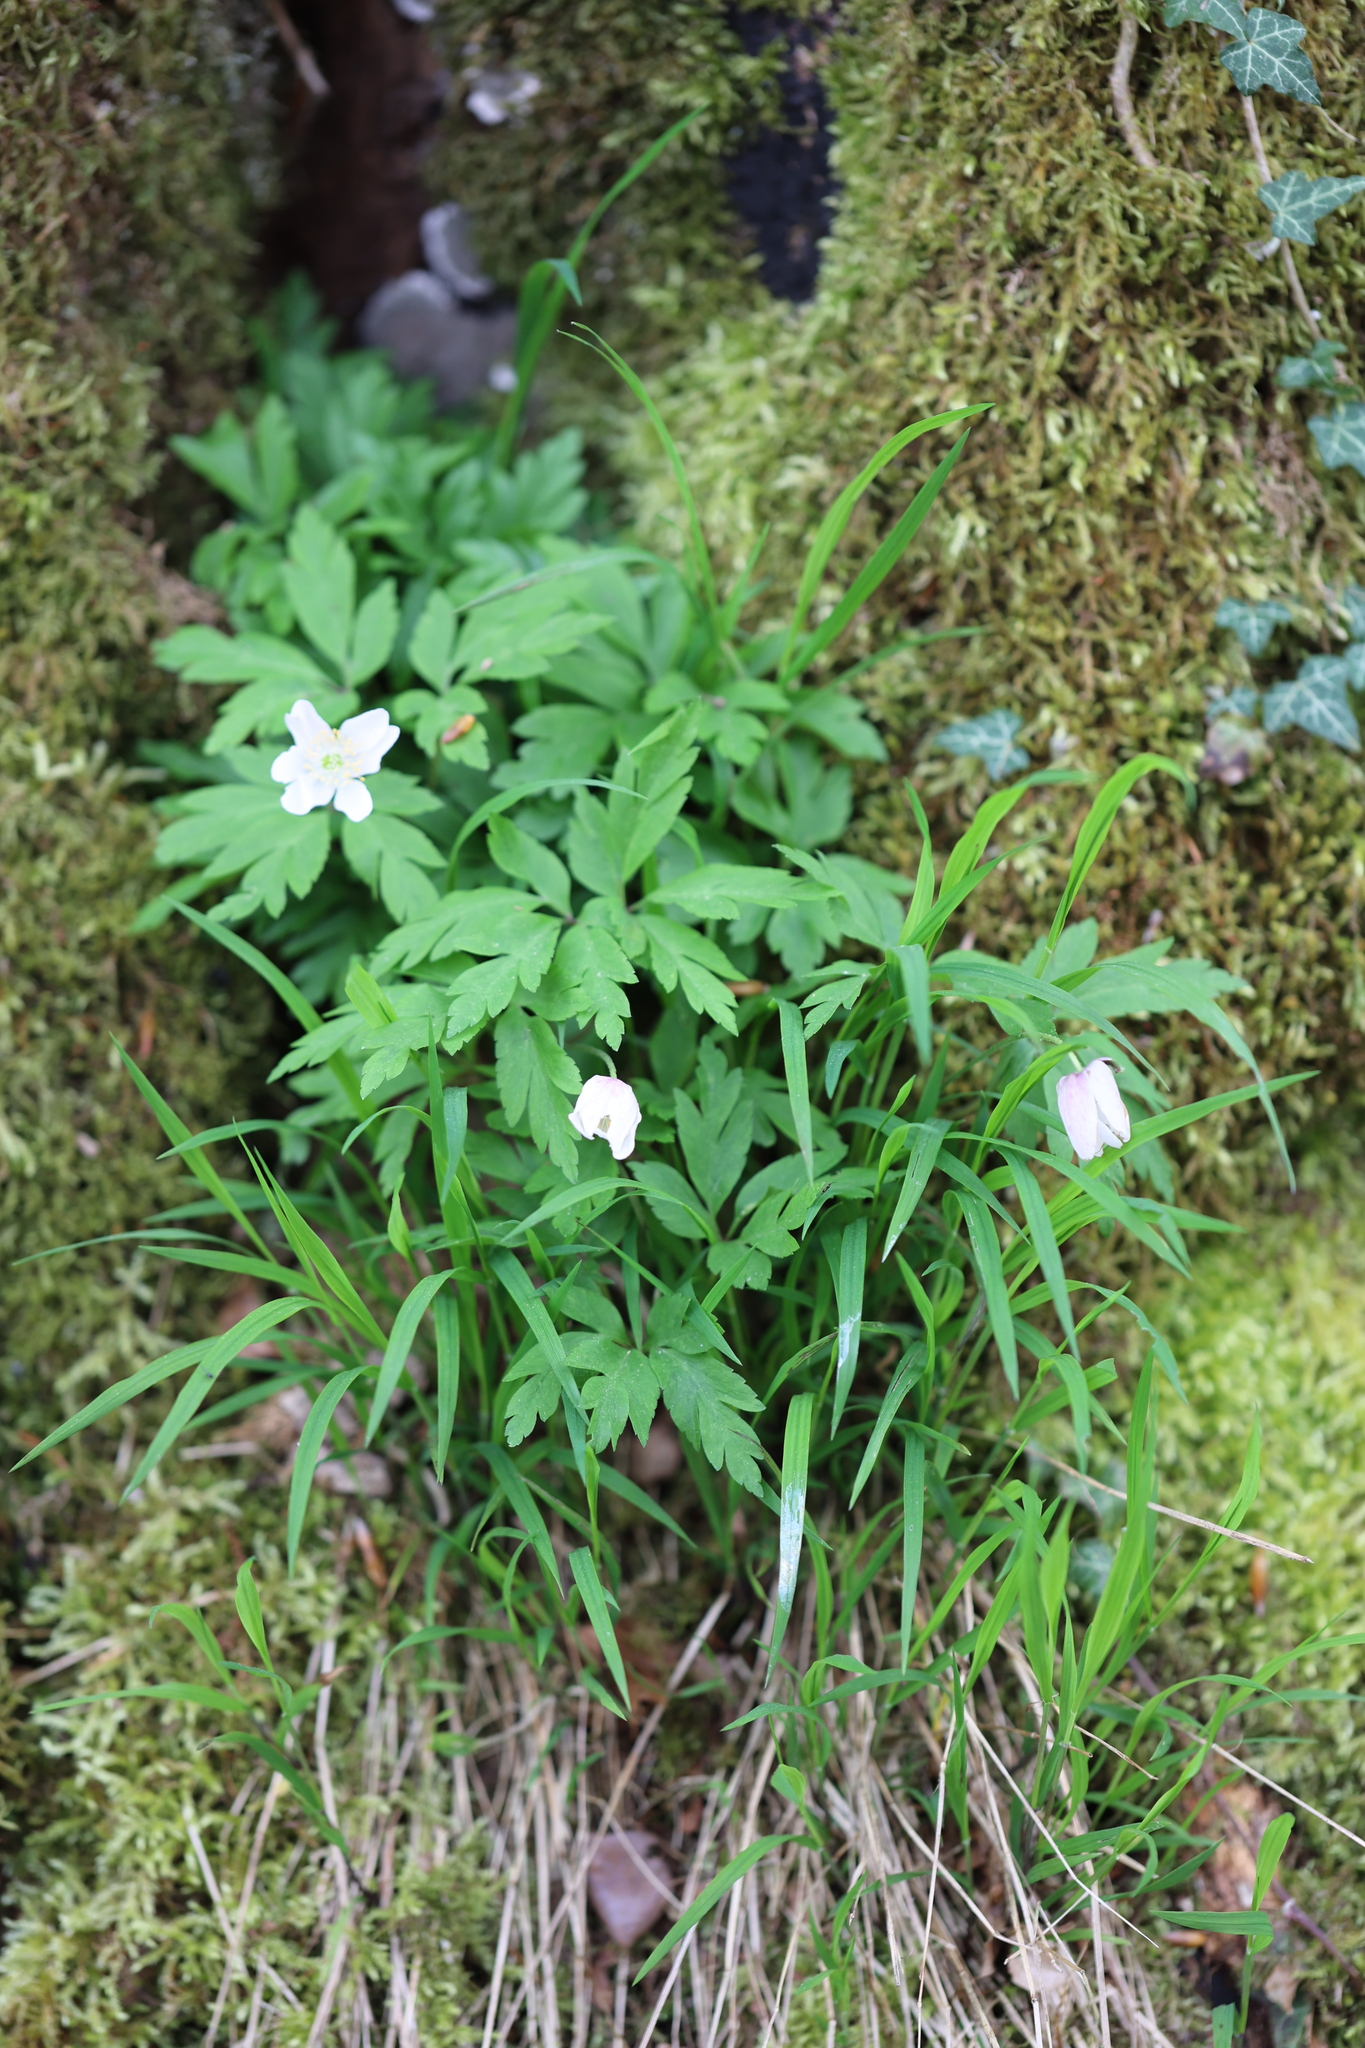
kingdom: Plantae
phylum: Tracheophyta
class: Magnoliopsida
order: Ranunculales
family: Ranunculaceae
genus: Anemone
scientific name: Anemone nemorosa
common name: Wood anemone
